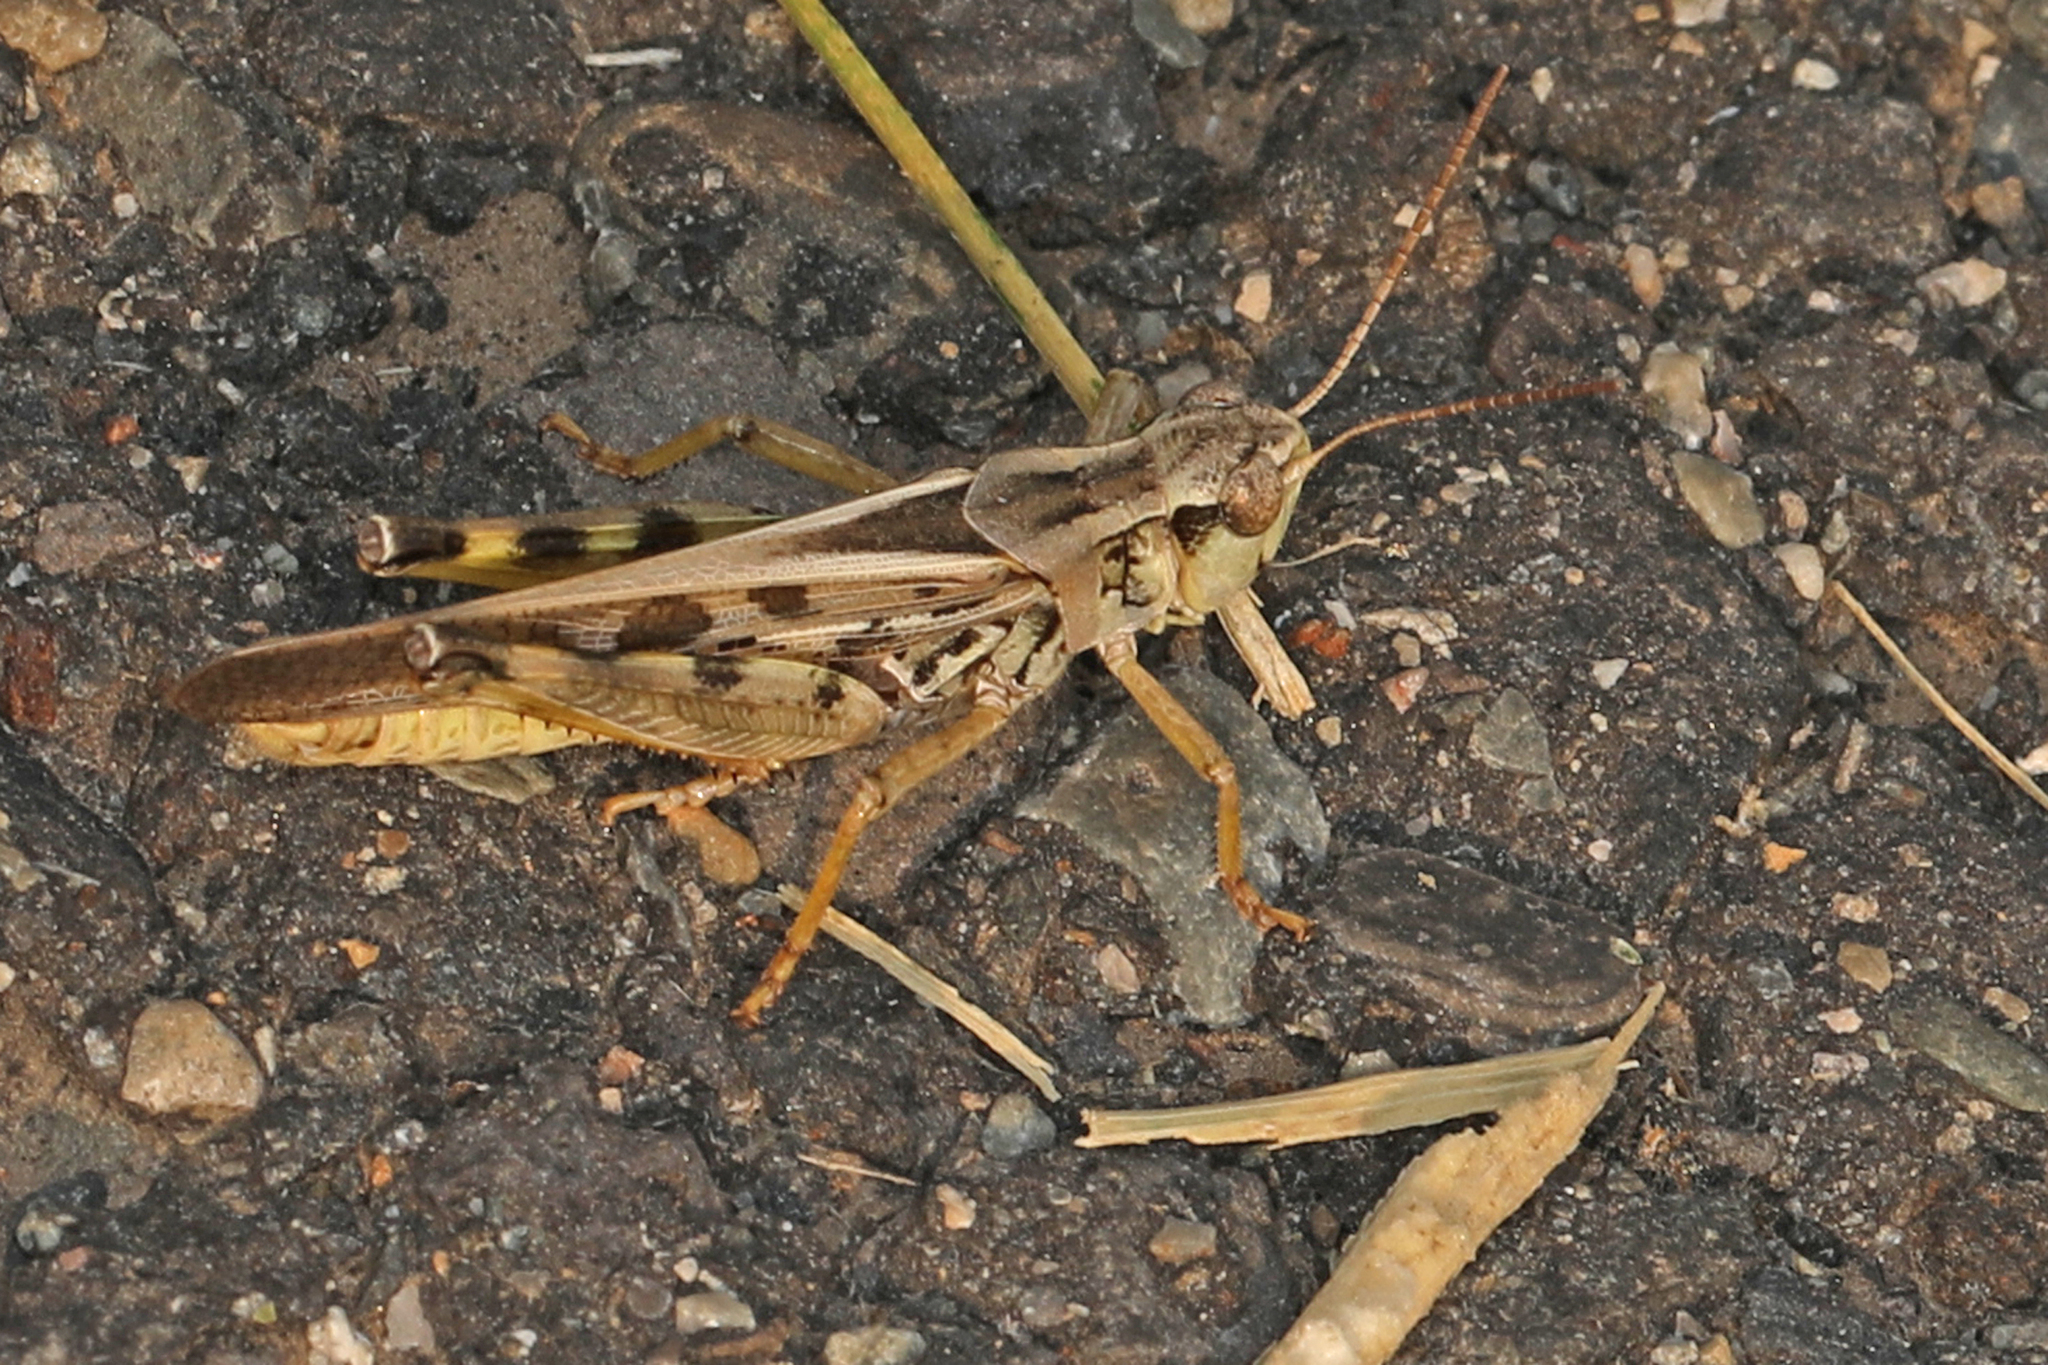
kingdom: Animalia
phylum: Arthropoda
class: Insecta
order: Orthoptera
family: Acrididae
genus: Camnula
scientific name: Camnula pellucida
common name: Clear-winged grasshopper
